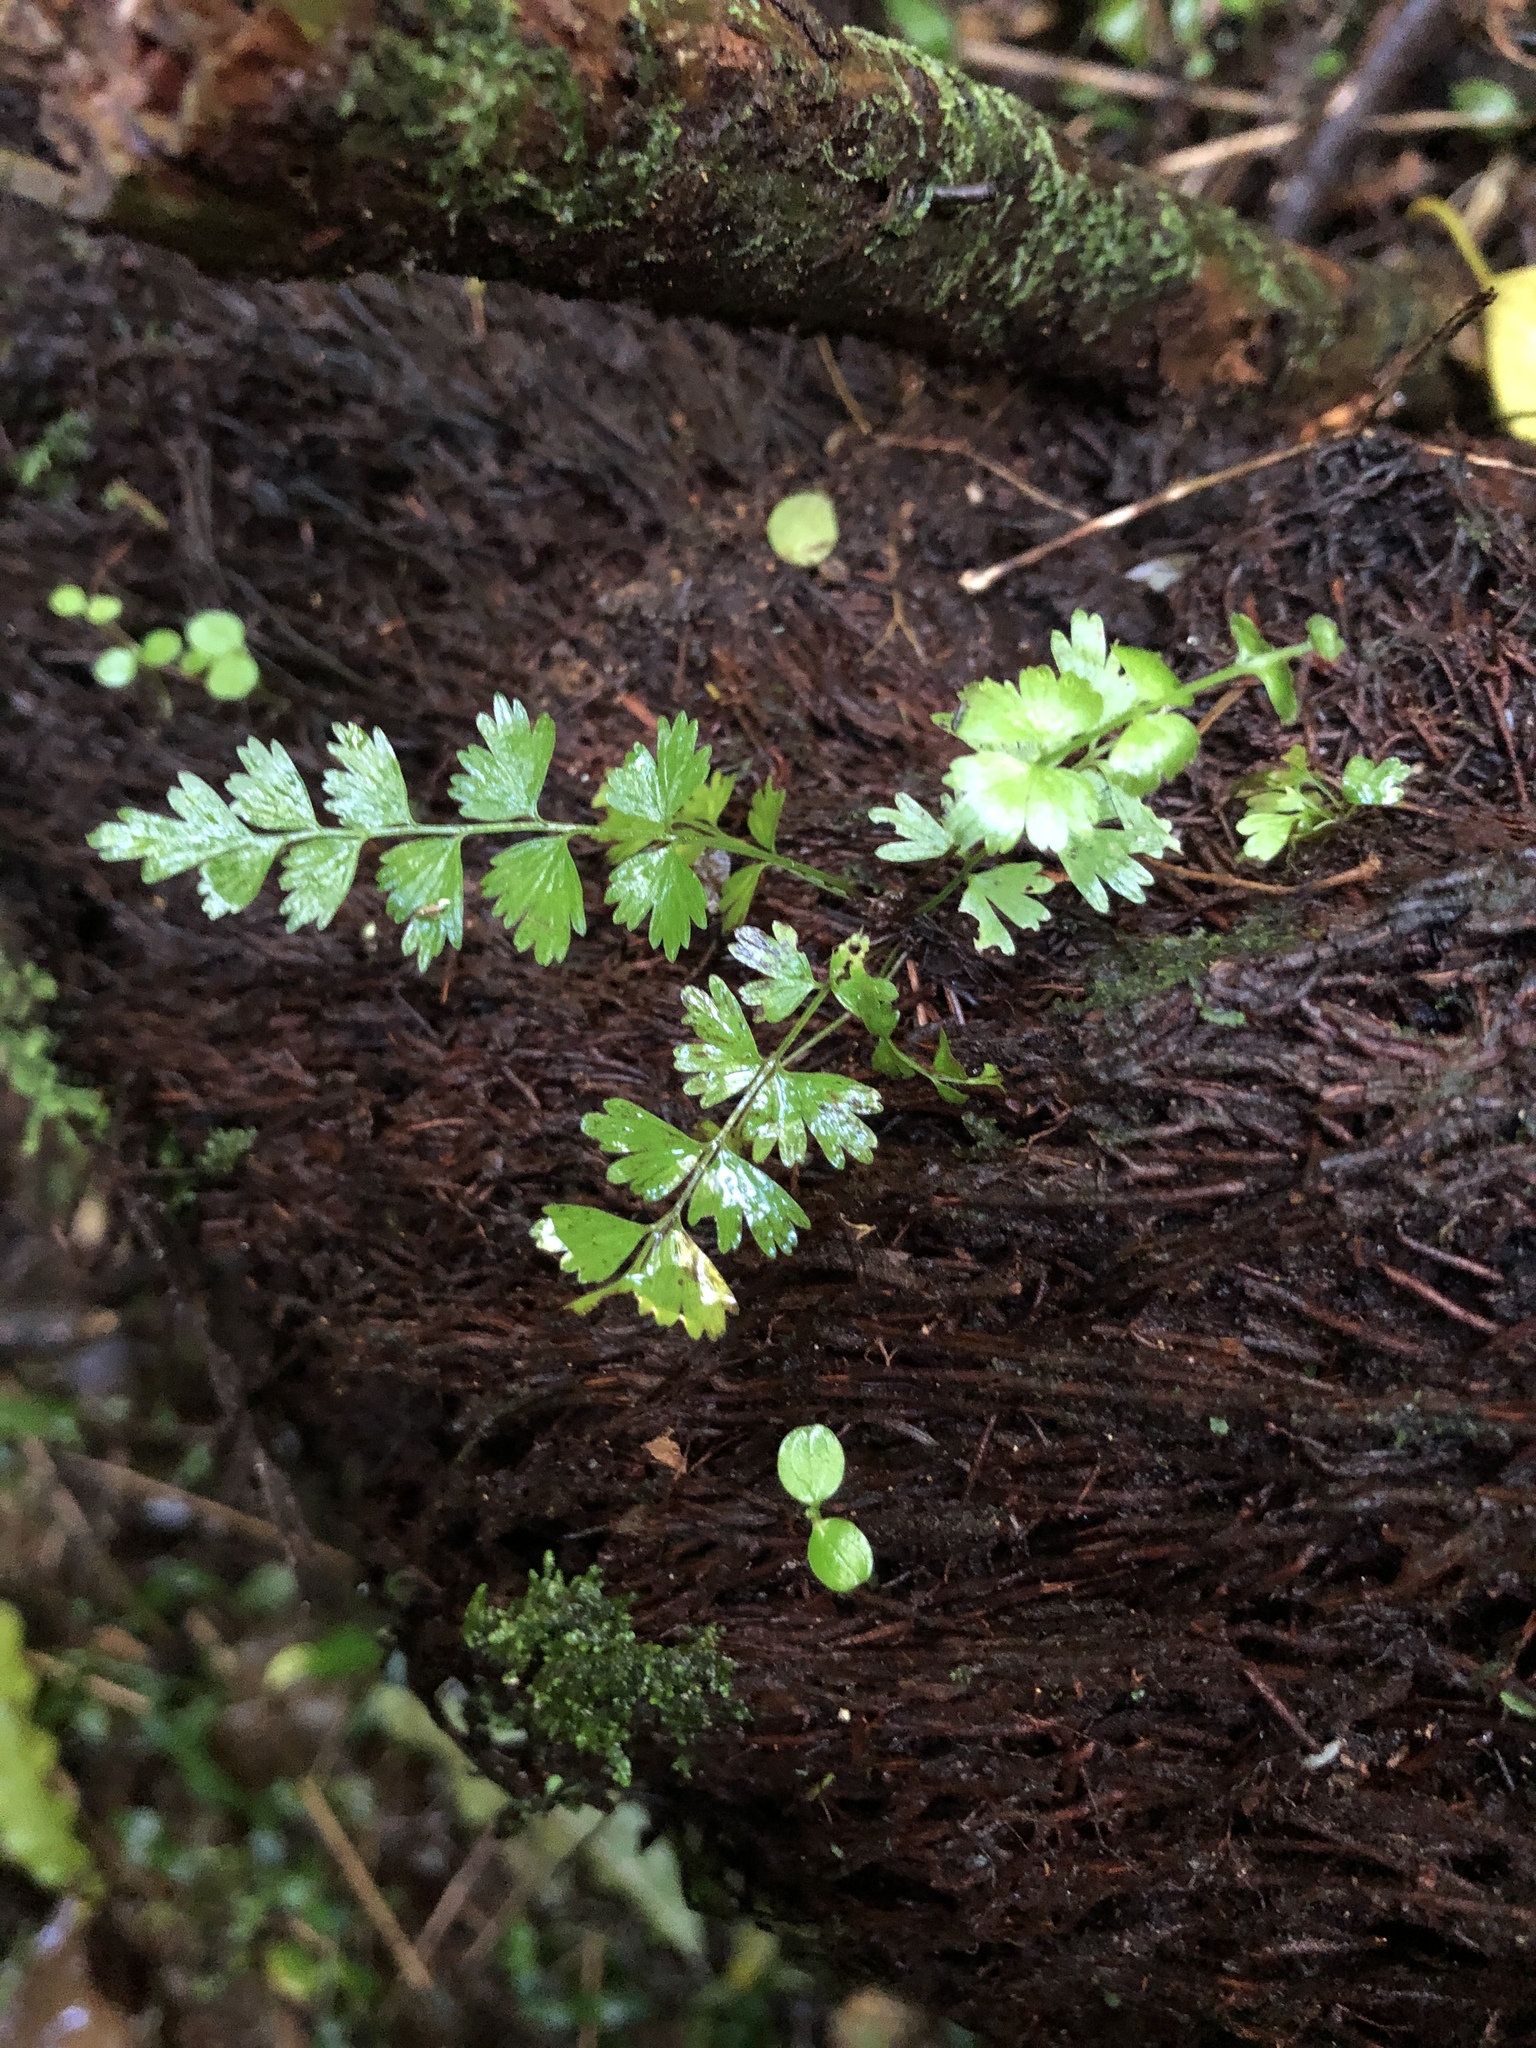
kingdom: Plantae
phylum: Tracheophyta
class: Polypodiopsida
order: Polypodiales
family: Aspleniaceae
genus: Asplenium
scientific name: Asplenium polyodon
